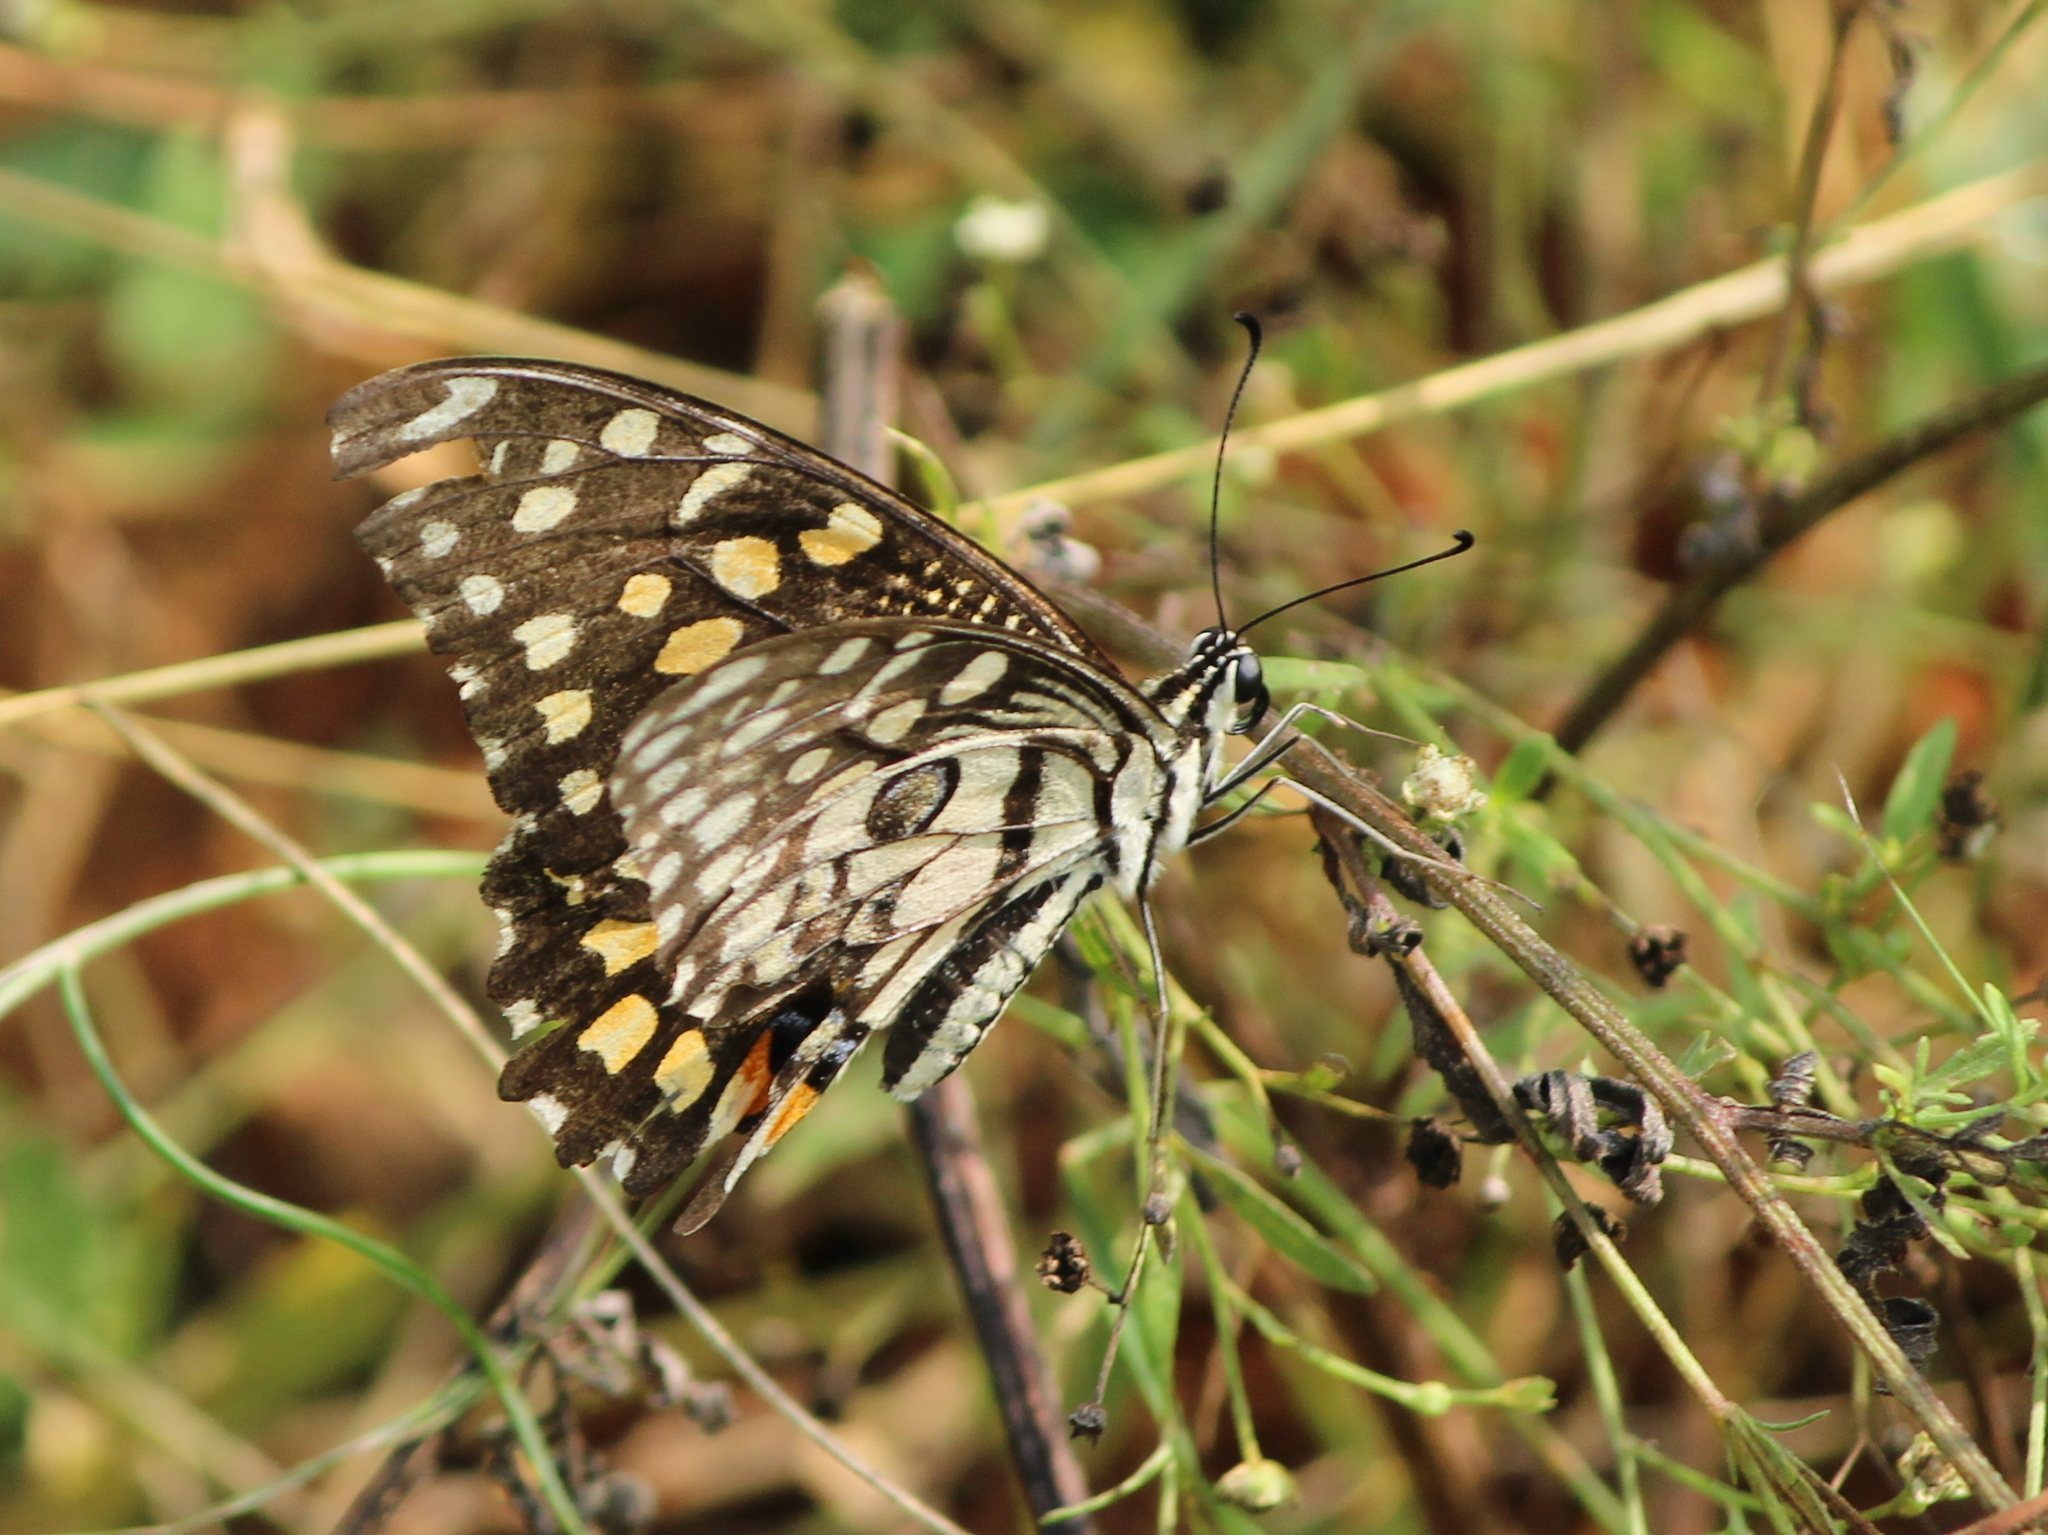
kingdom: Animalia
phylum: Arthropoda
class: Insecta
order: Lepidoptera
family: Papilionidae
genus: Papilio
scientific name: Papilio demoleus
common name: Lime butterfly
